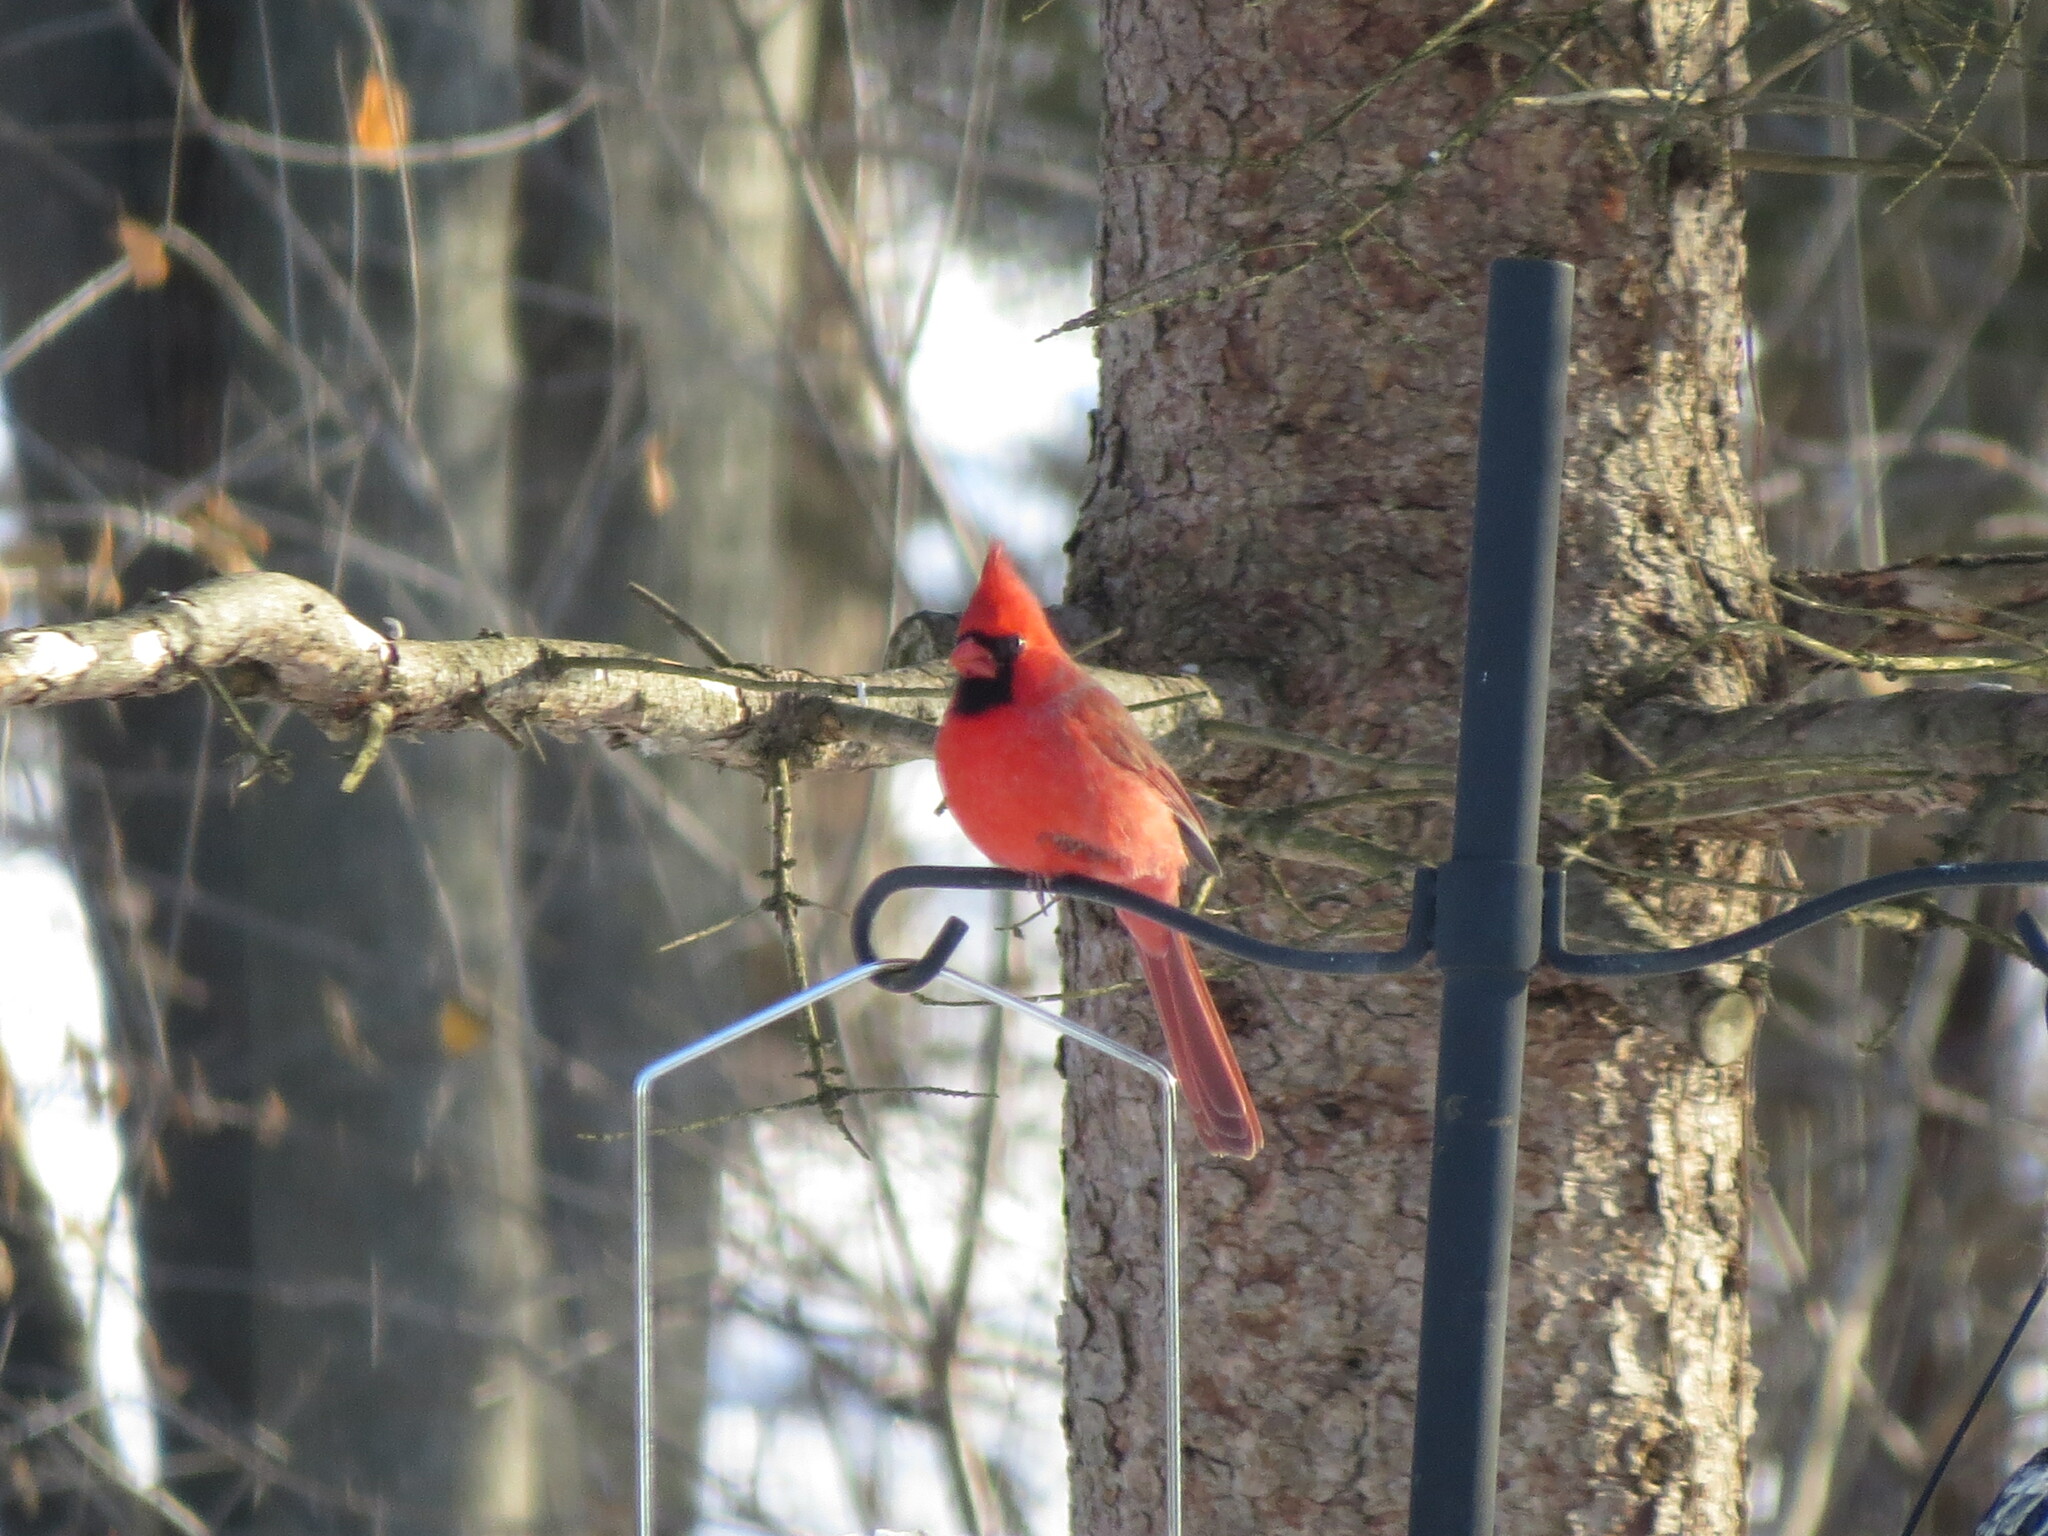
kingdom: Animalia
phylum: Chordata
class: Aves
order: Passeriformes
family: Cardinalidae
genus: Cardinalis
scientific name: Cardinalis cardinalis
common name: Northern cardinal
